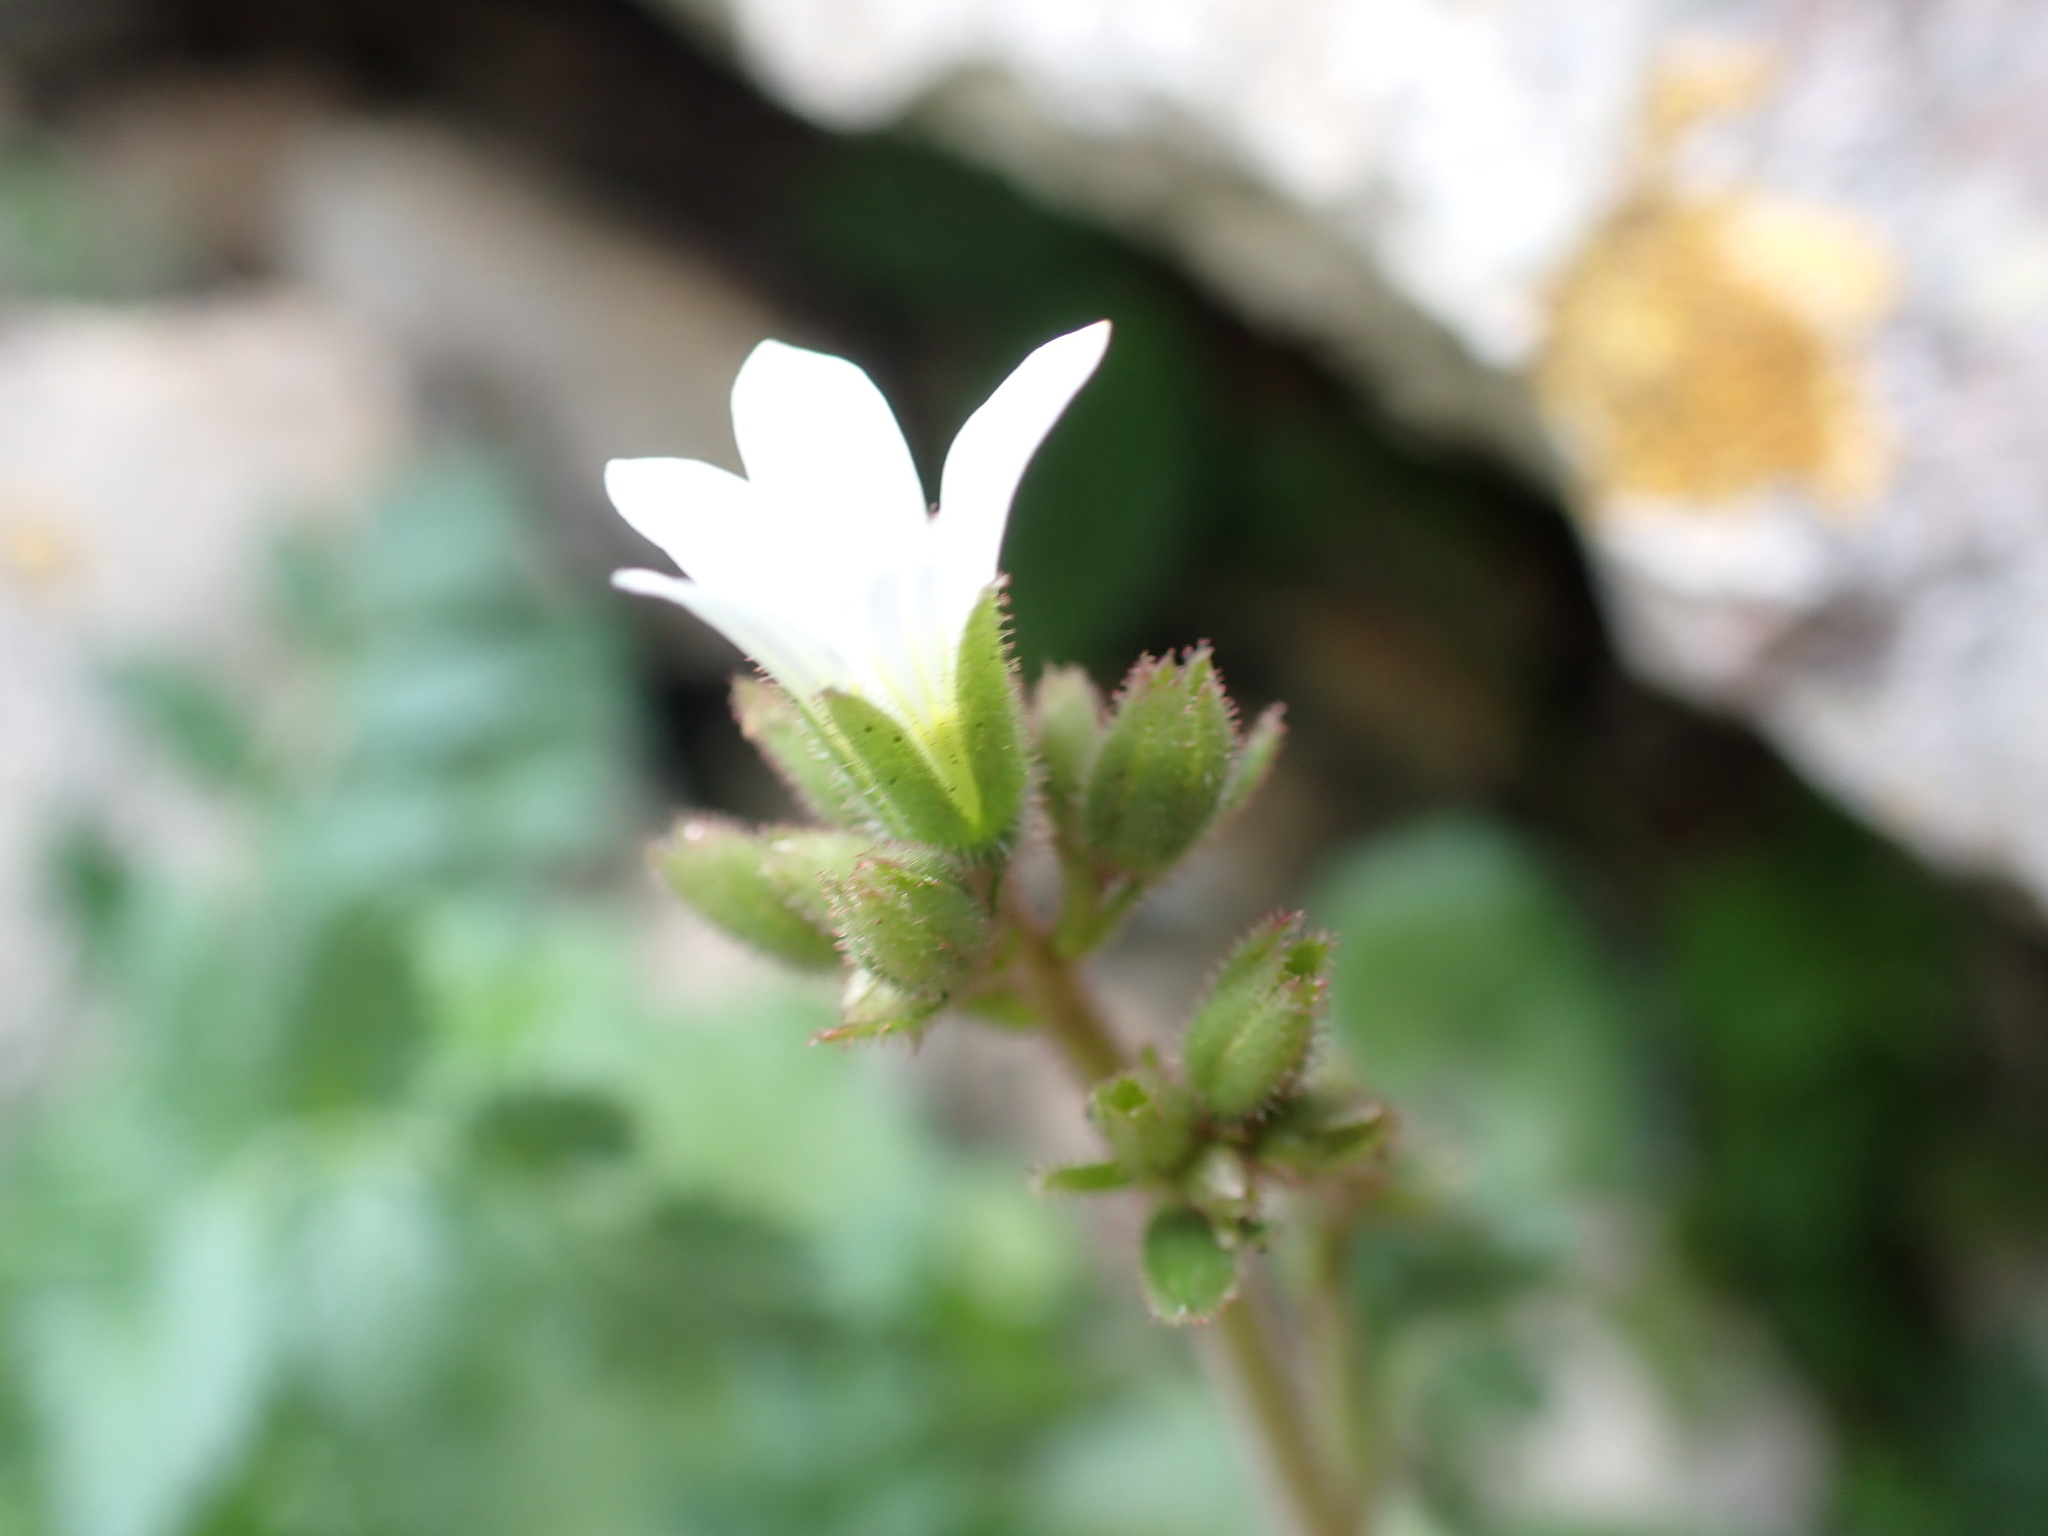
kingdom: Plantae
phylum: Tracheophyta
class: Magnoliopsida
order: Saxifragales
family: Saxifragaceae
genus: Saxifraga
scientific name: Saxifraga granulata
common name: Meadow saxifrage
